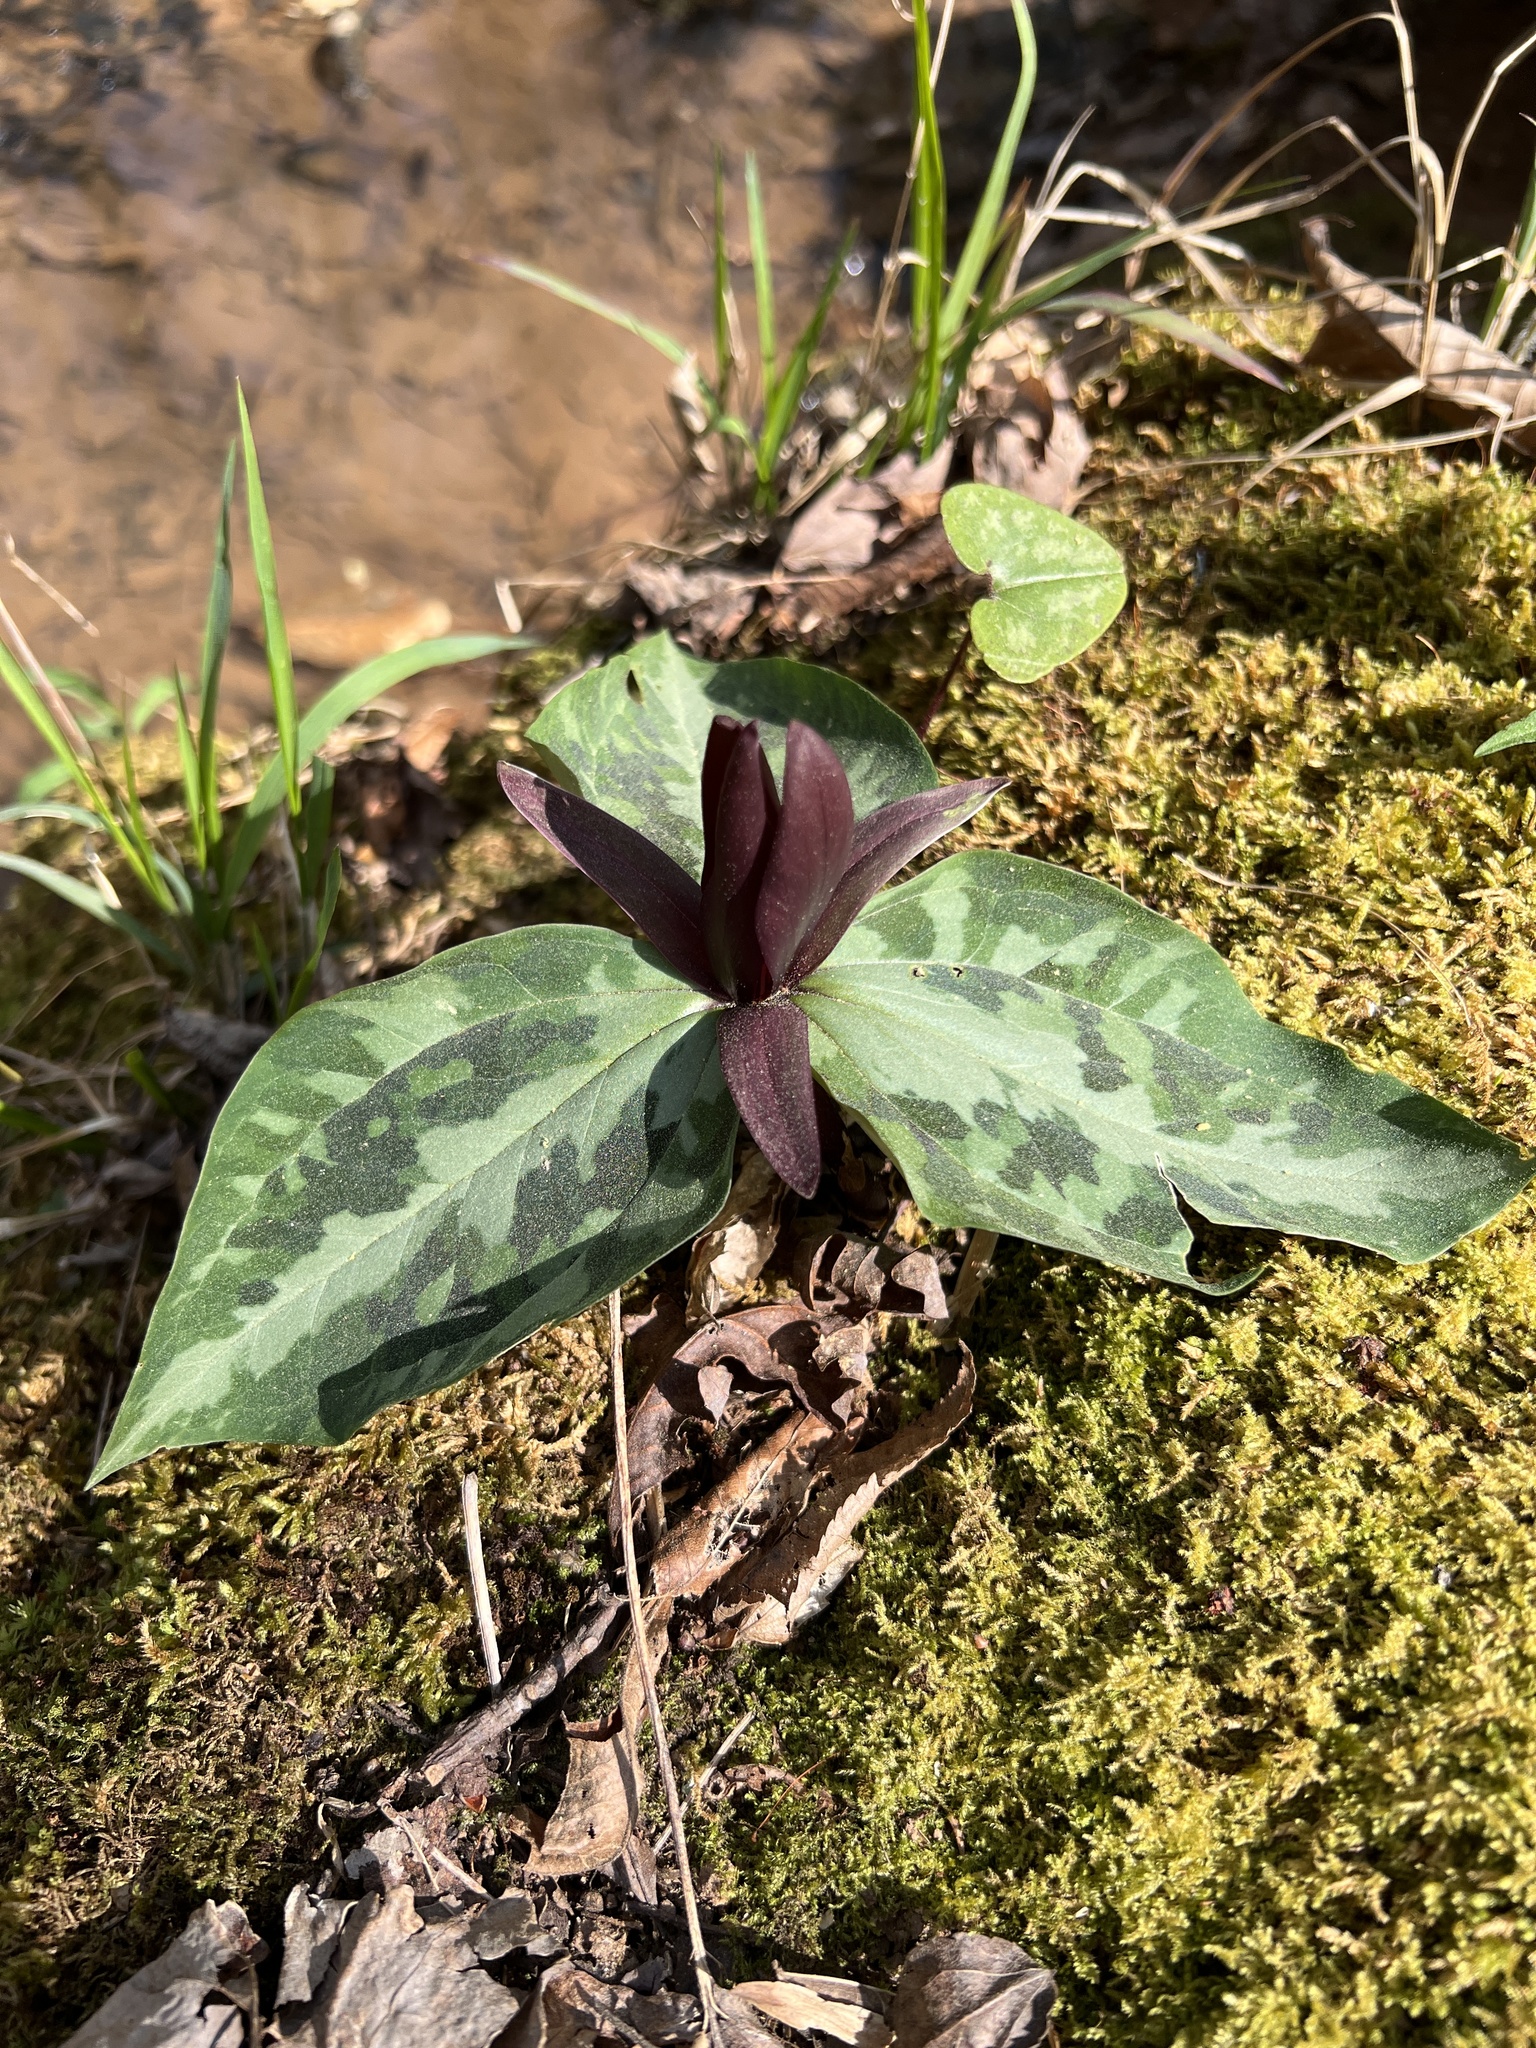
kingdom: Plantae
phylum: Tracheophyta
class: Liliopsida
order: Liliales
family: Melanthiaceae
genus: Trillium
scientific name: Trillium
